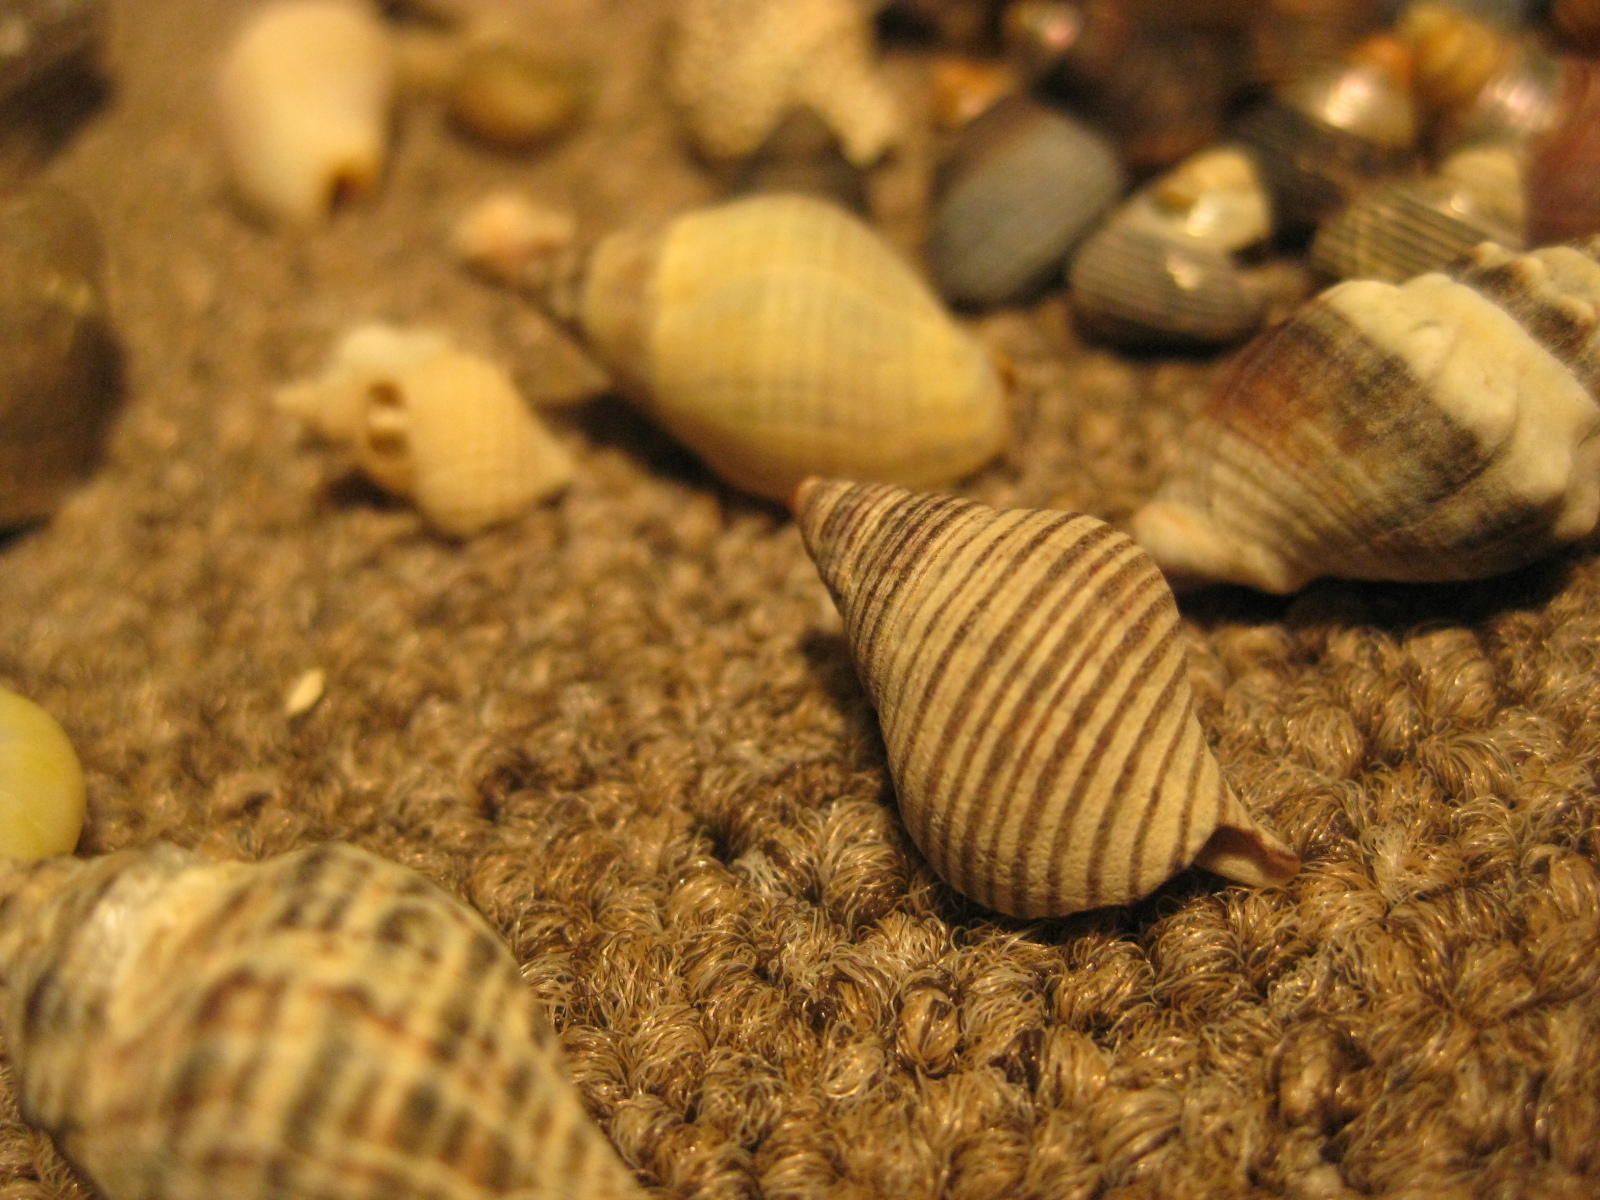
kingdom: Animalia
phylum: Mollusca
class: Gastropoda
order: Neogastropoda
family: Tudiclidae
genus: Buccinulum
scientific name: Buccinulum vittatum
